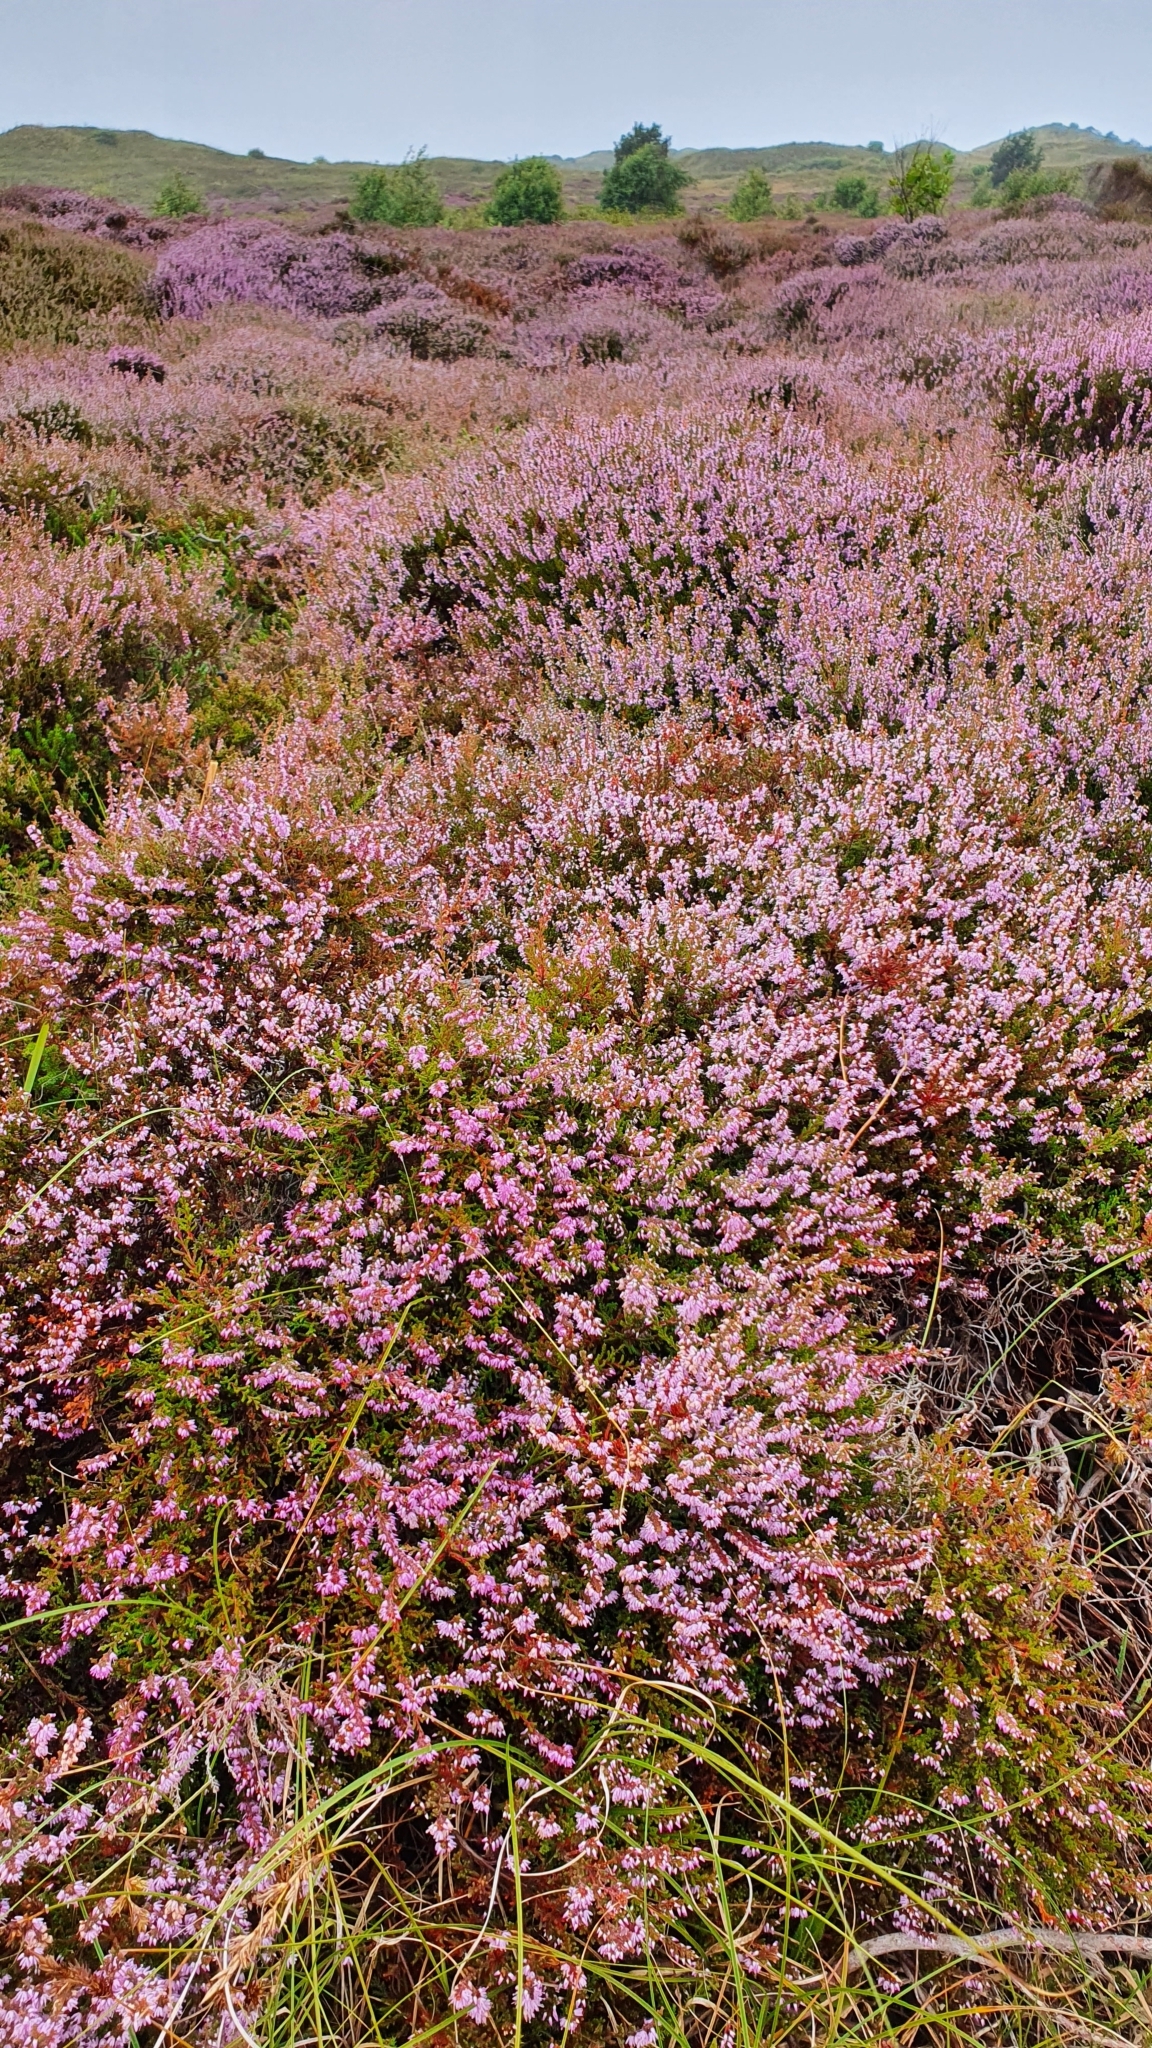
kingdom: Plantae
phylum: Tracheophyta
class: Magnoliopsida
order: Ericales
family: Ericaceae
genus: Calluna
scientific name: Calluna vulgaris
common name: Heather
